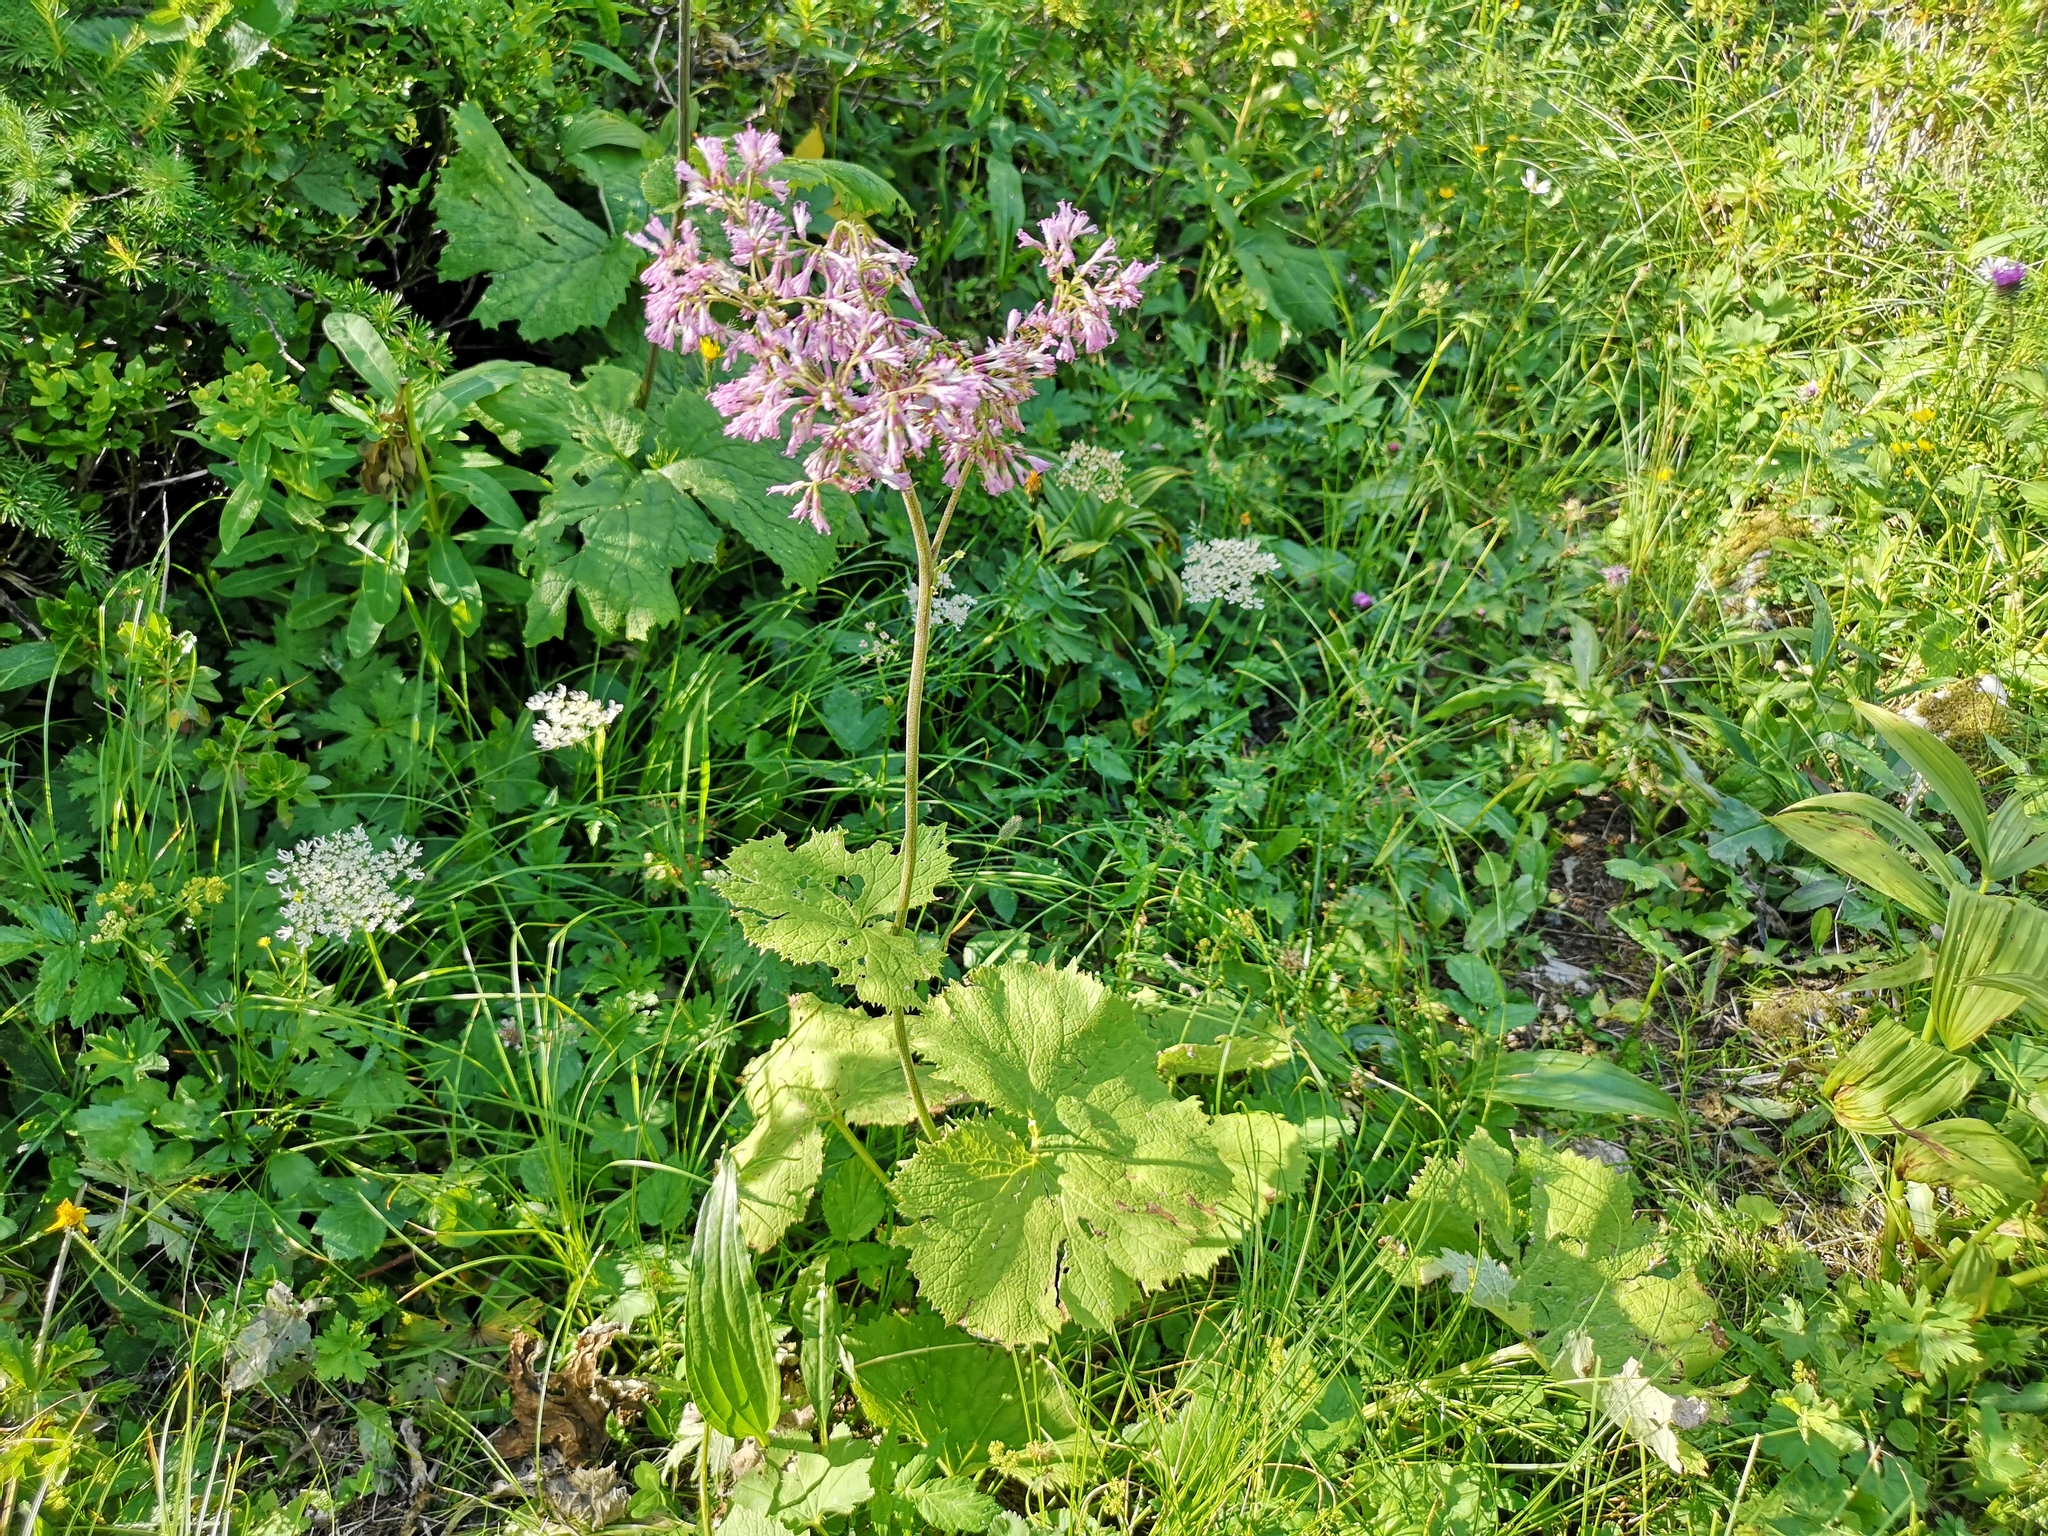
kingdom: Plantae
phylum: Tracheophyta
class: Magnoliopsida
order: Asterales
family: Asteraceae
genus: Adenostyles
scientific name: Adenostyles alliariae
